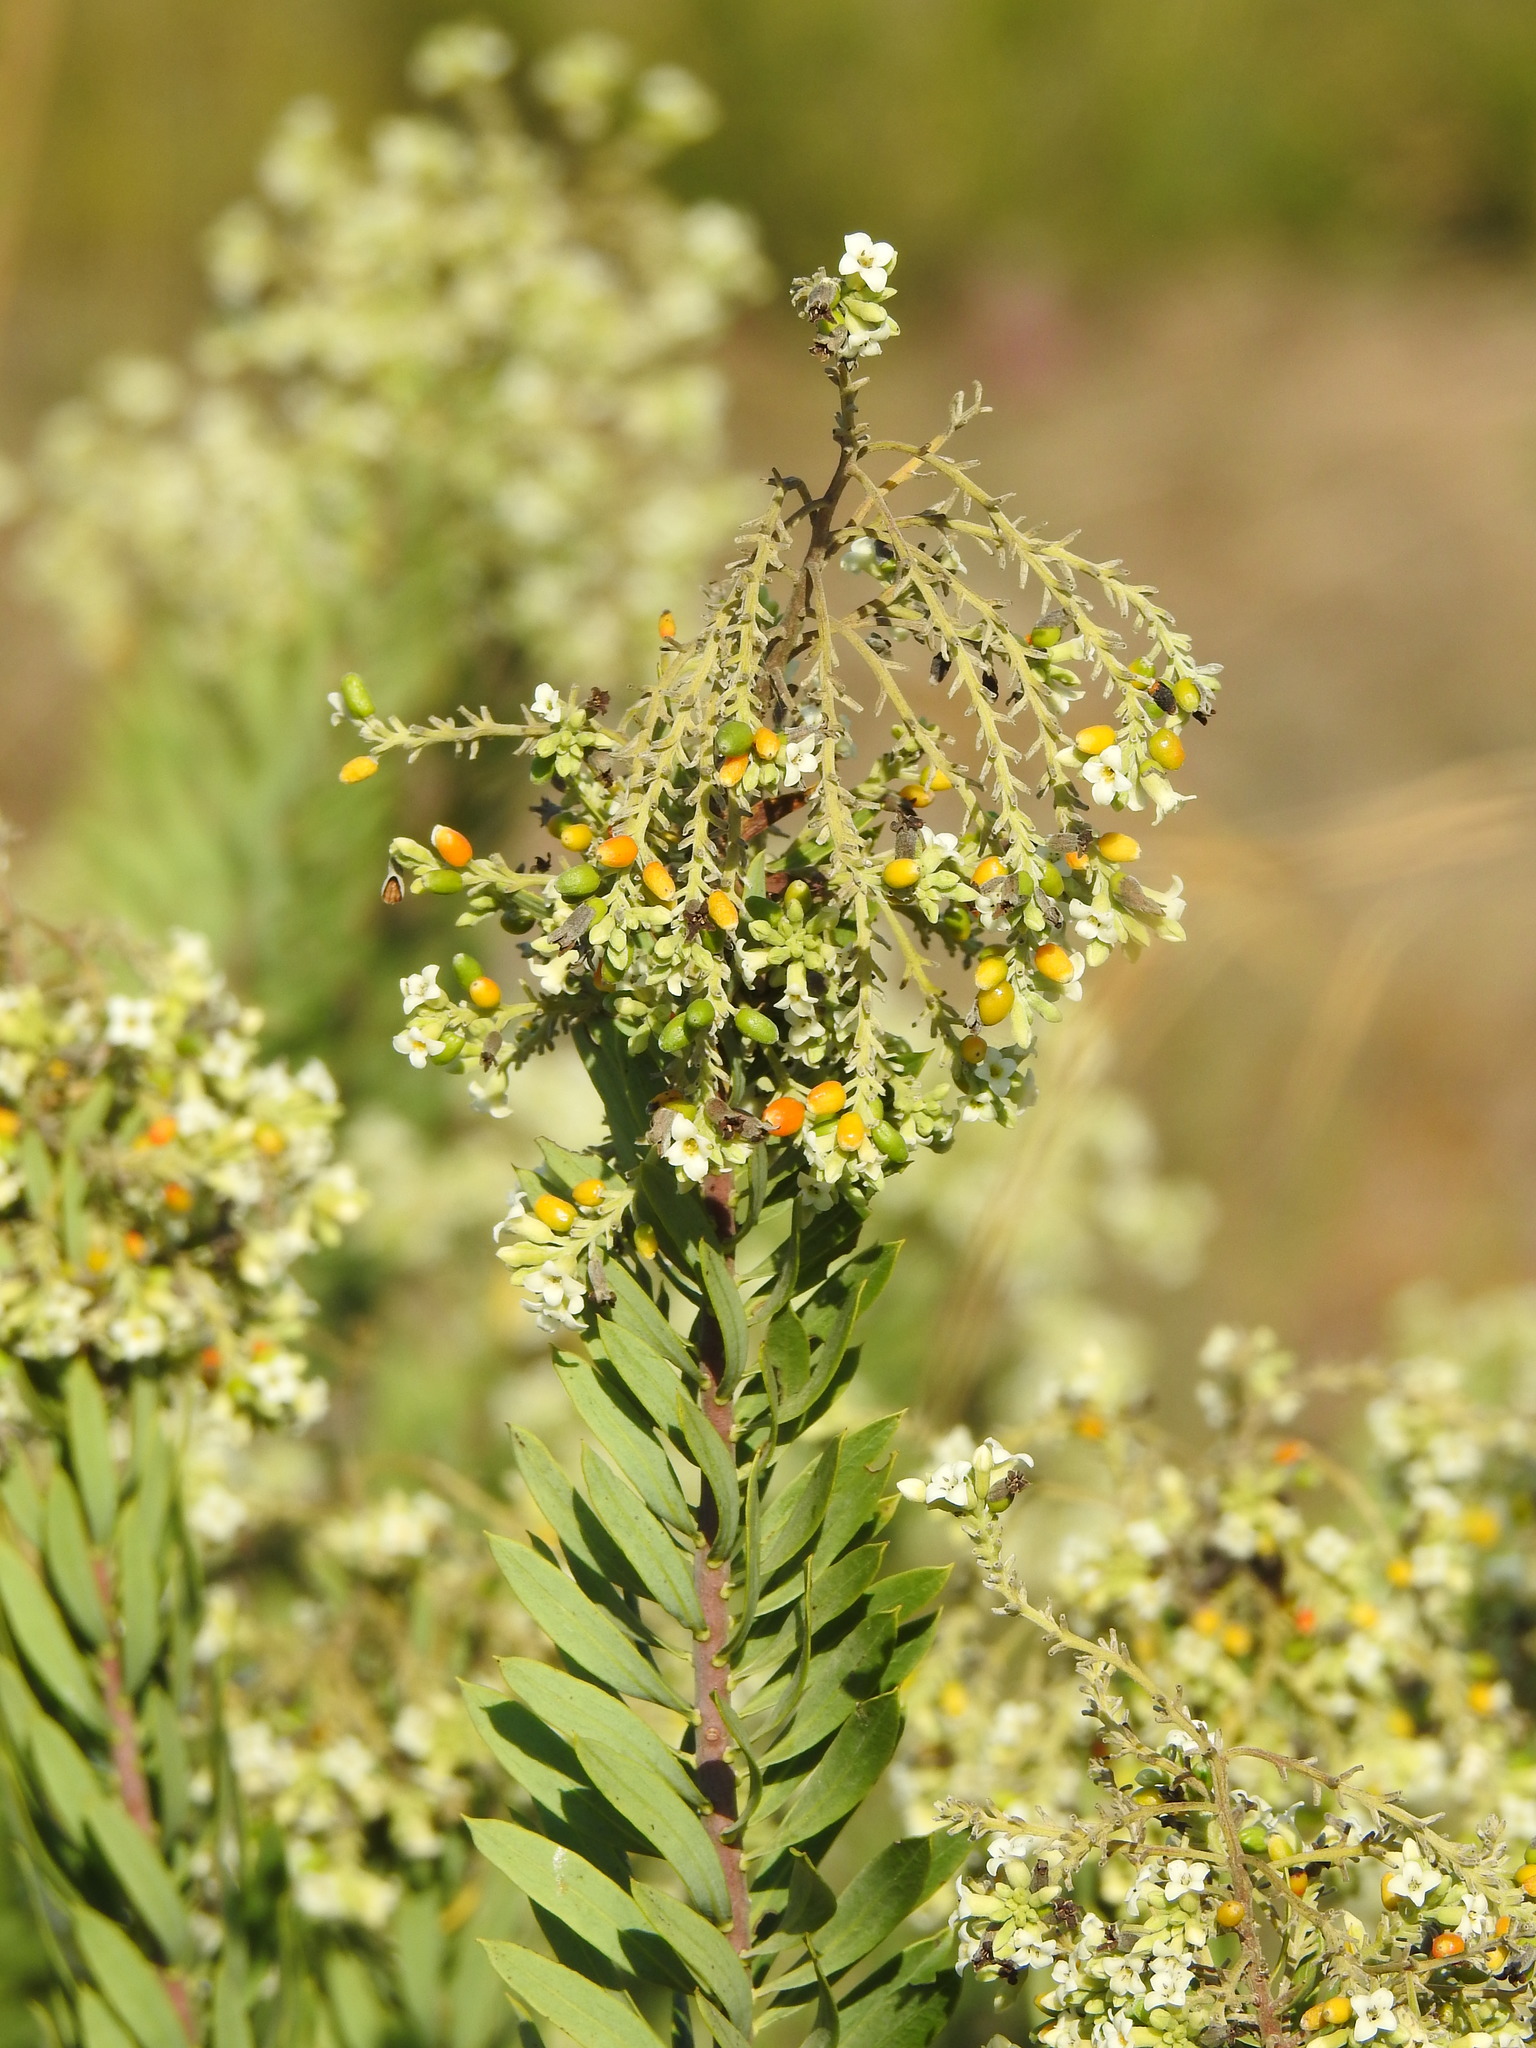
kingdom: Plantae
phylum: Tracheophyta
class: Magnoliopsida
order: Malvales
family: Thymelaeaceae
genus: Daphne
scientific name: Daphne gnidium
